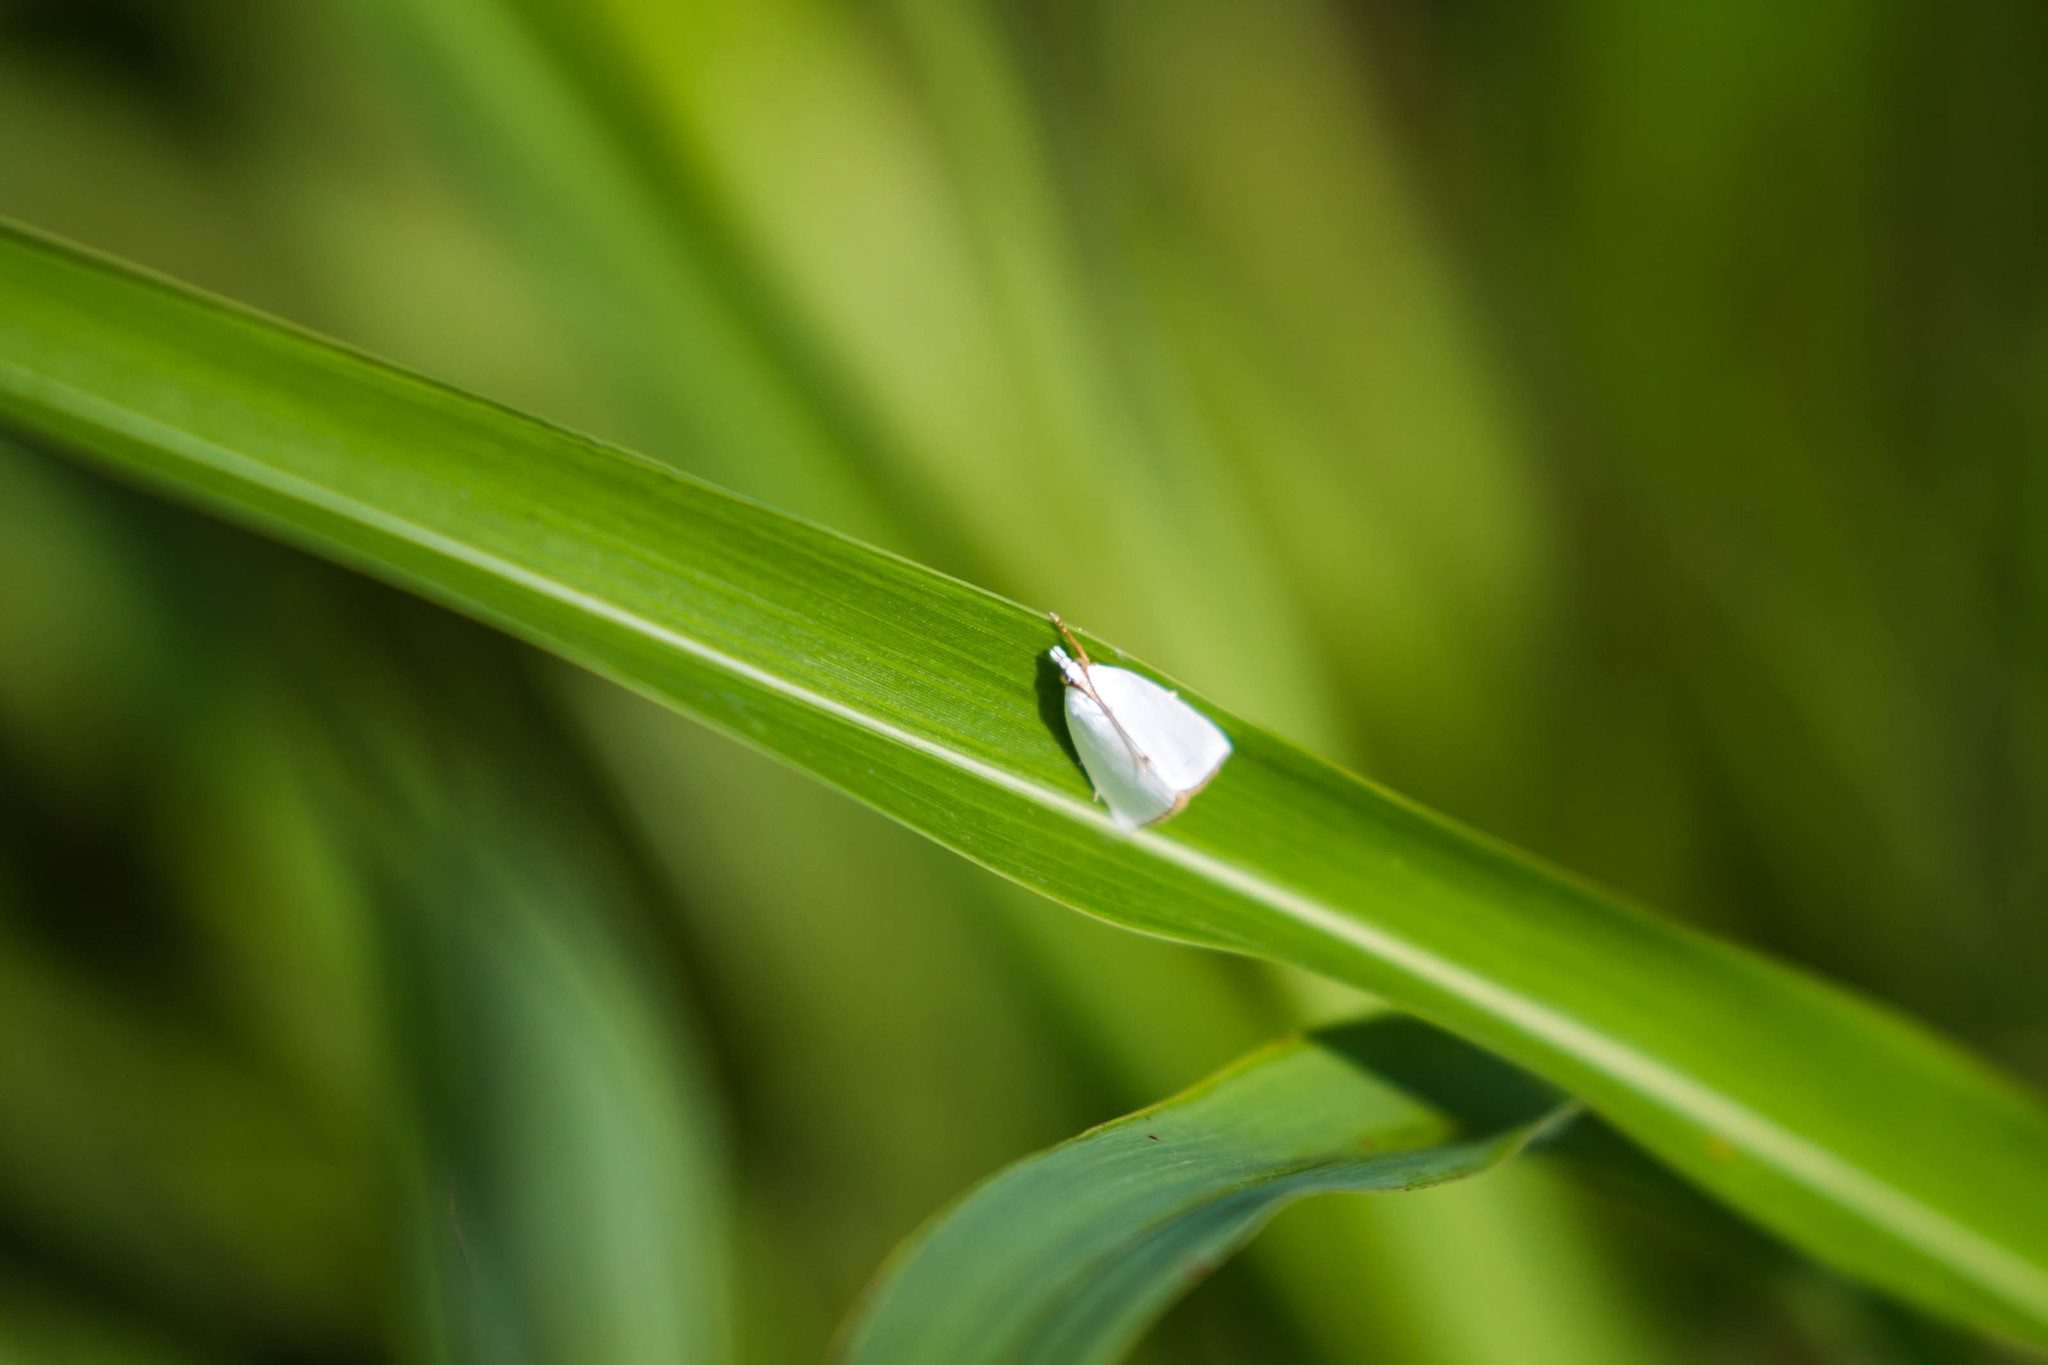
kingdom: Animalia
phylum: Arthropoda
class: Insecta
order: Lepidoptera
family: Crambidae
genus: Argyria
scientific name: Argyria nivalis
